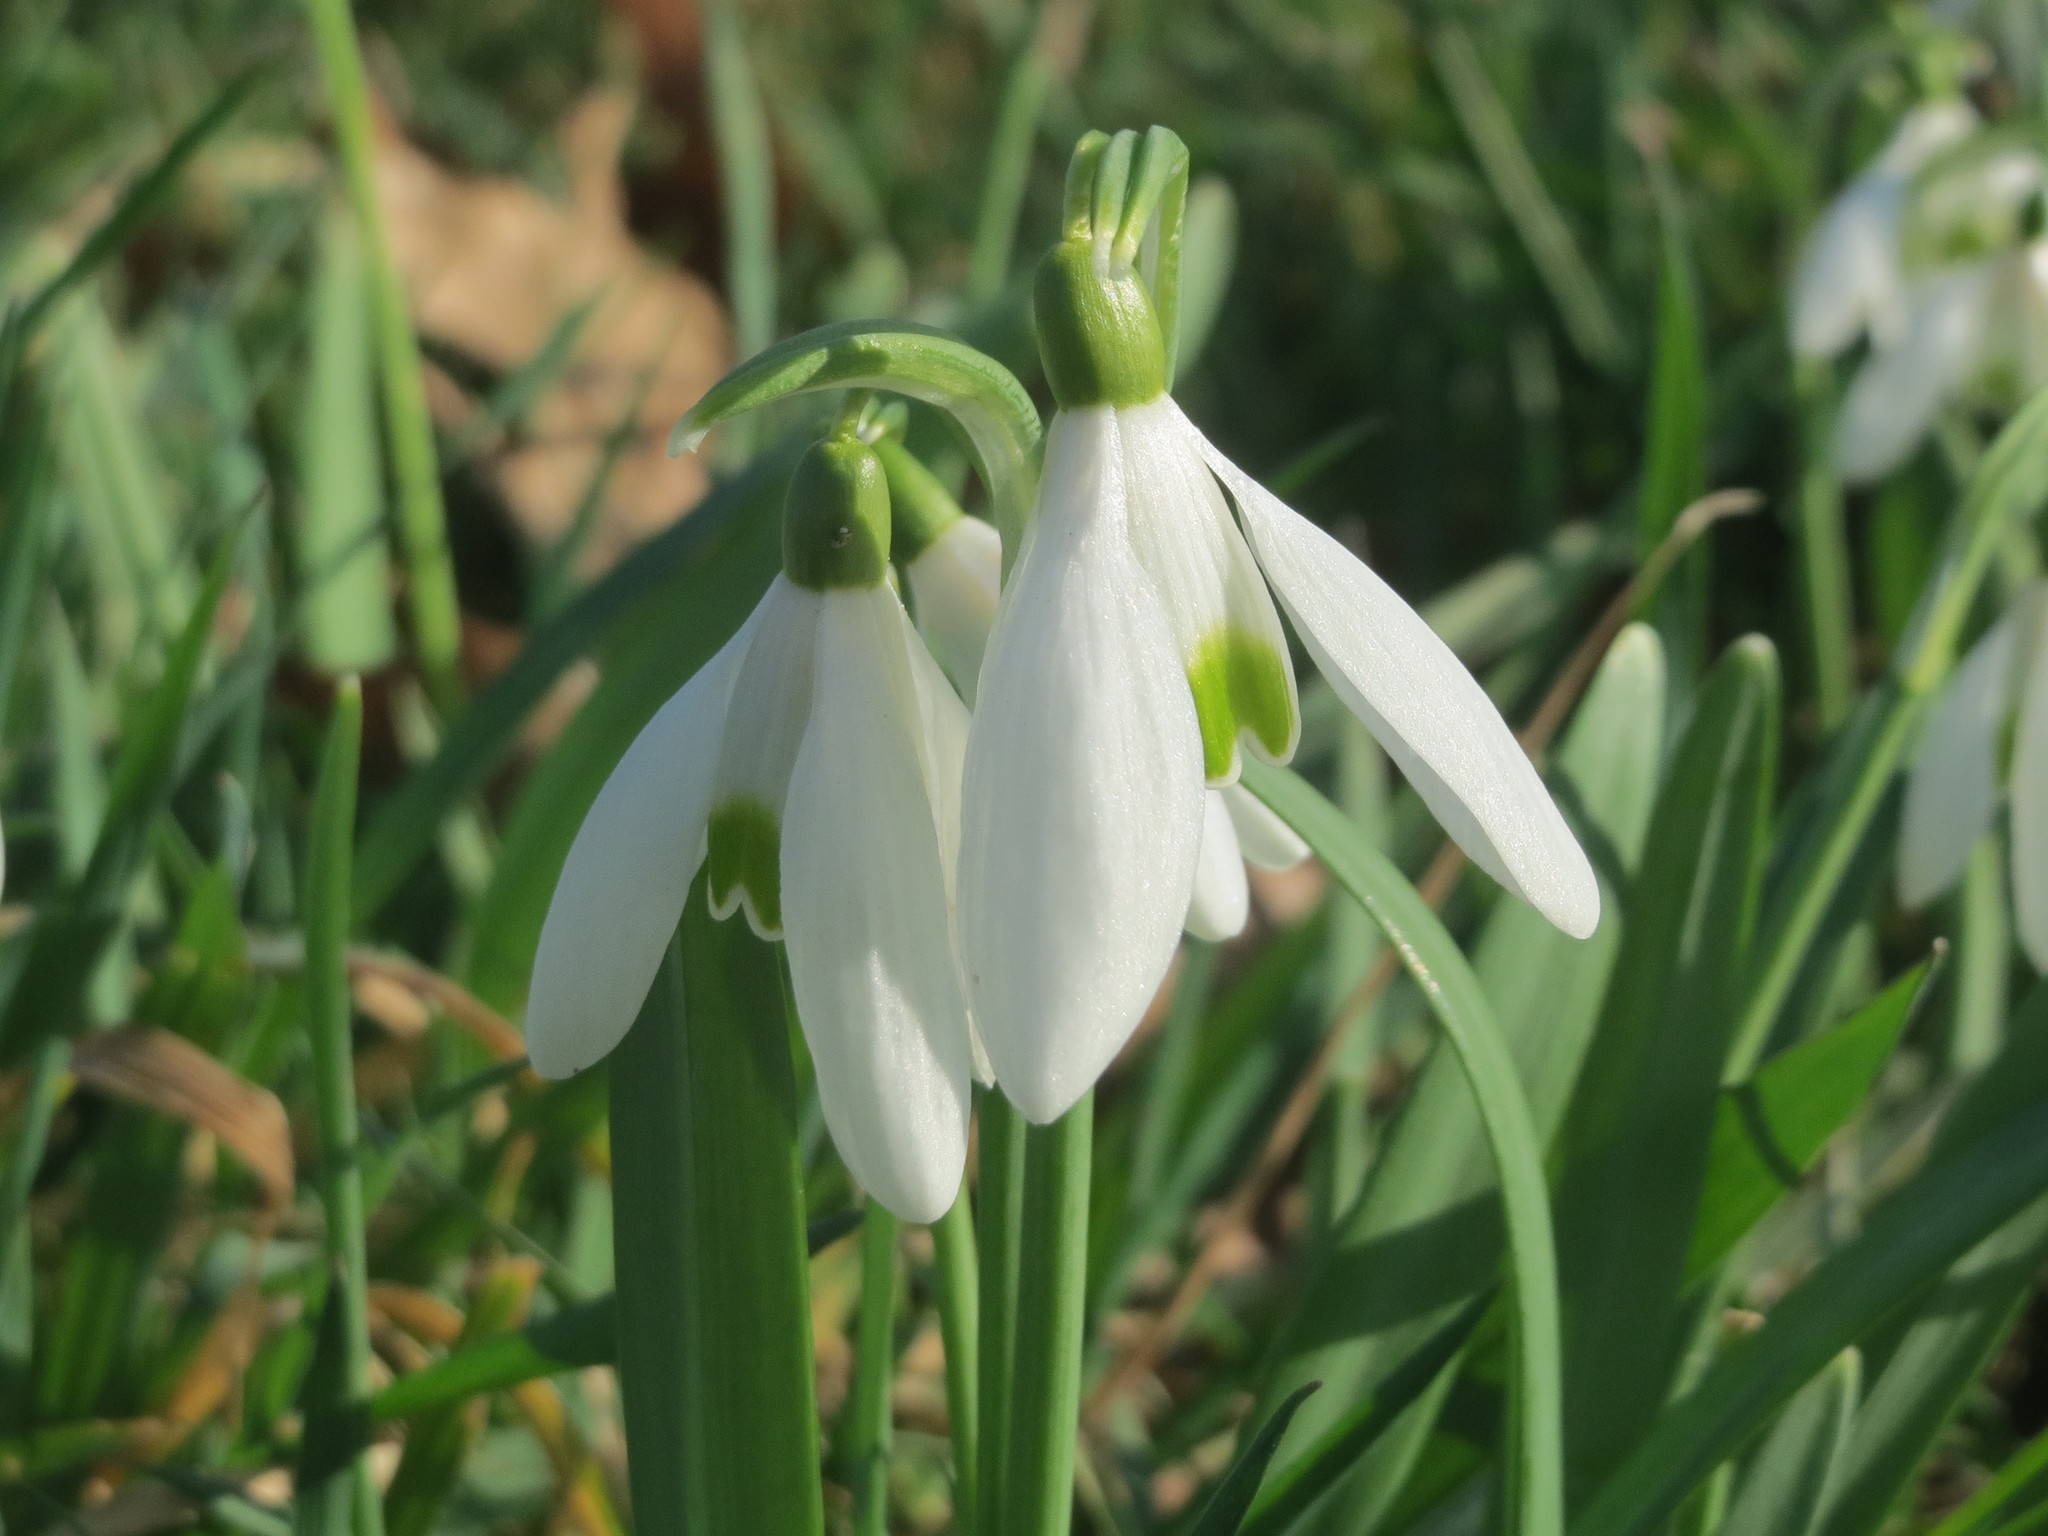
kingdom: Plantae
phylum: Tracheophyta
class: Liliopsida
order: Asparagales
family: Amaryllidaceae
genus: Galanthus
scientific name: Galanthus nivalis
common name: Snowdrop
